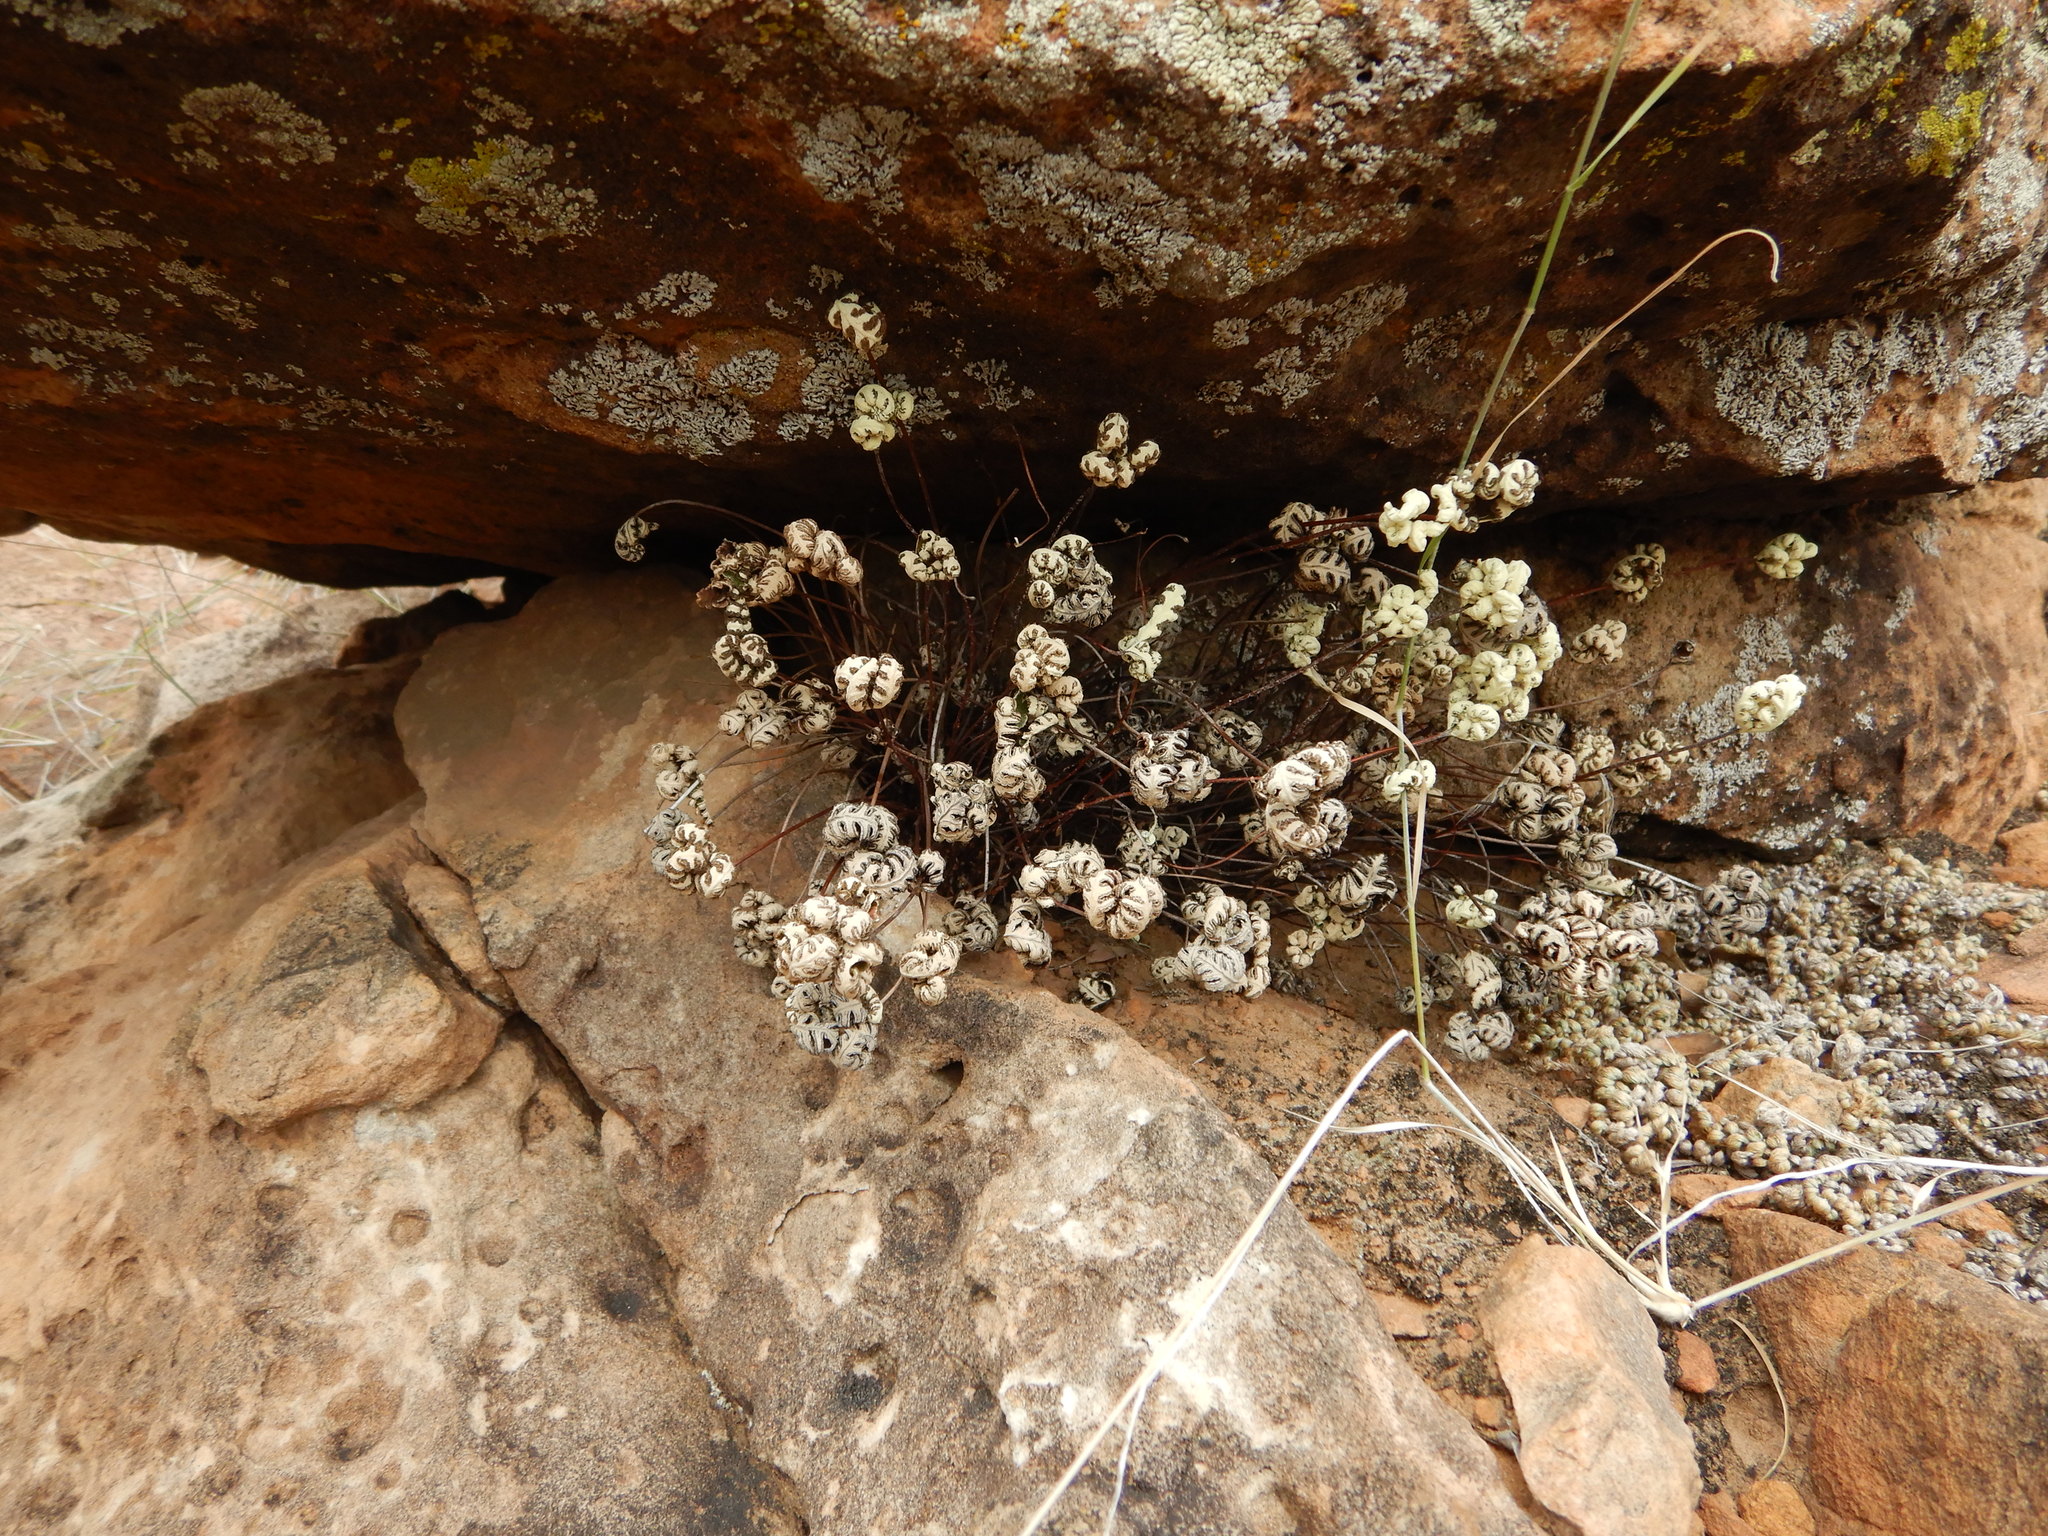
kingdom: Plantae
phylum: Tracheophyta
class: Polypodiopsida
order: Polypodiales
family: Pteridaceae
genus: Notholaena
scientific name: Notholaena standleyi
